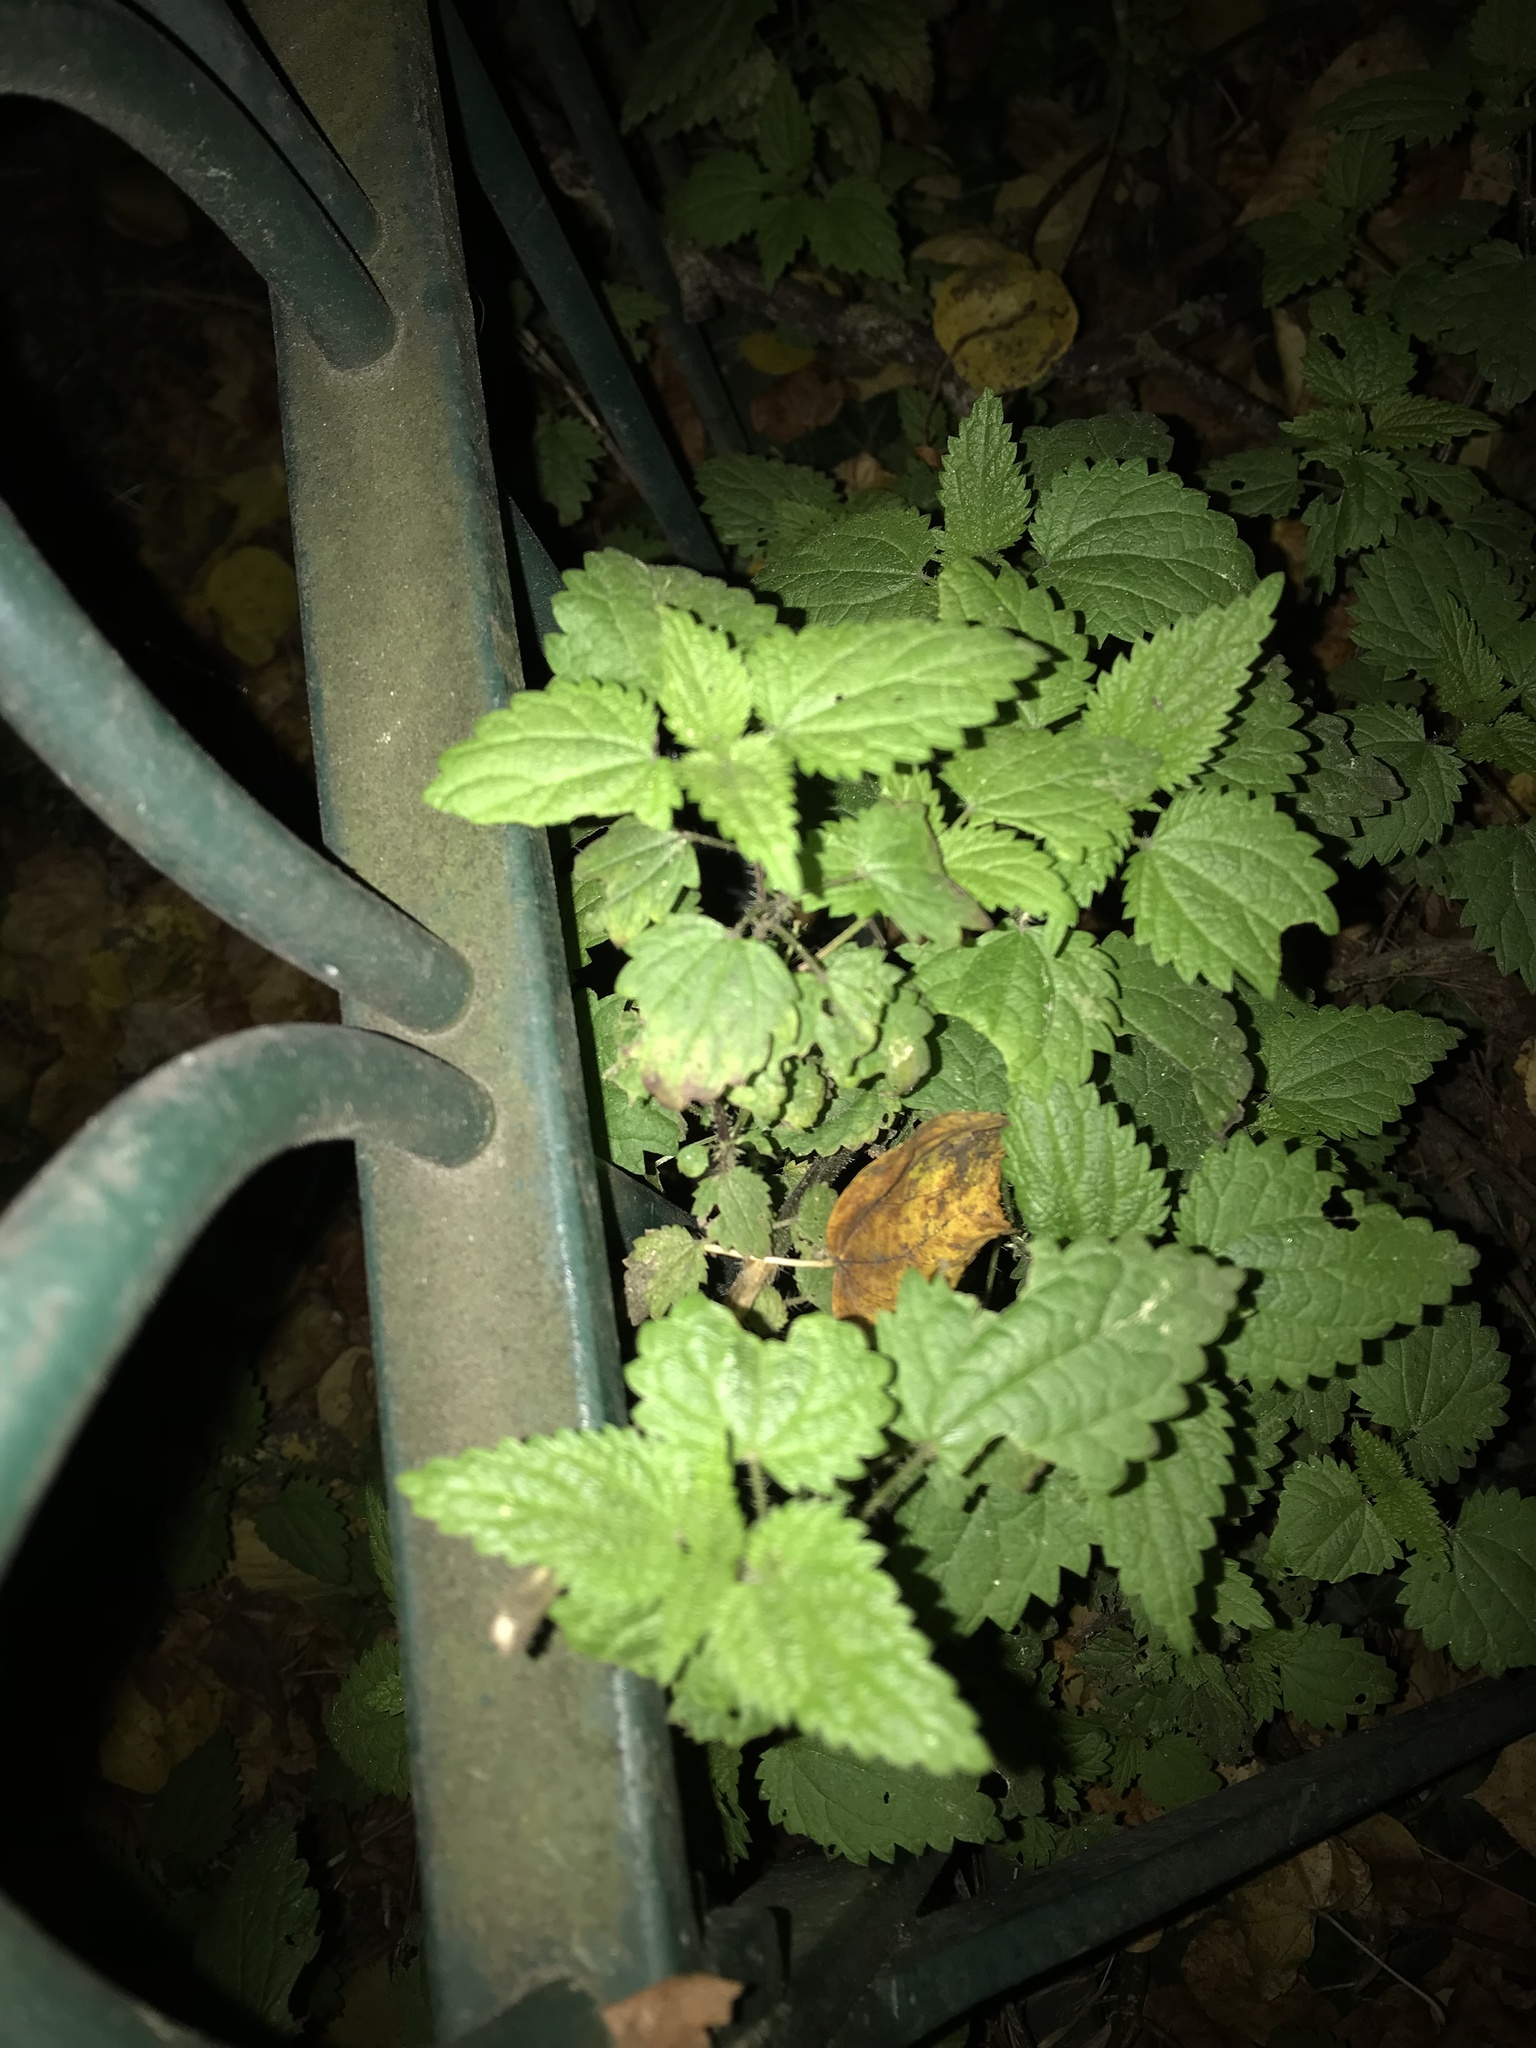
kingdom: Plantae
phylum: Tracheophyta
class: Magnoliopsida
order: Rosales
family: Urticaceae
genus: Urtica
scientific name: Urtica dioica
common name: Common nettle
